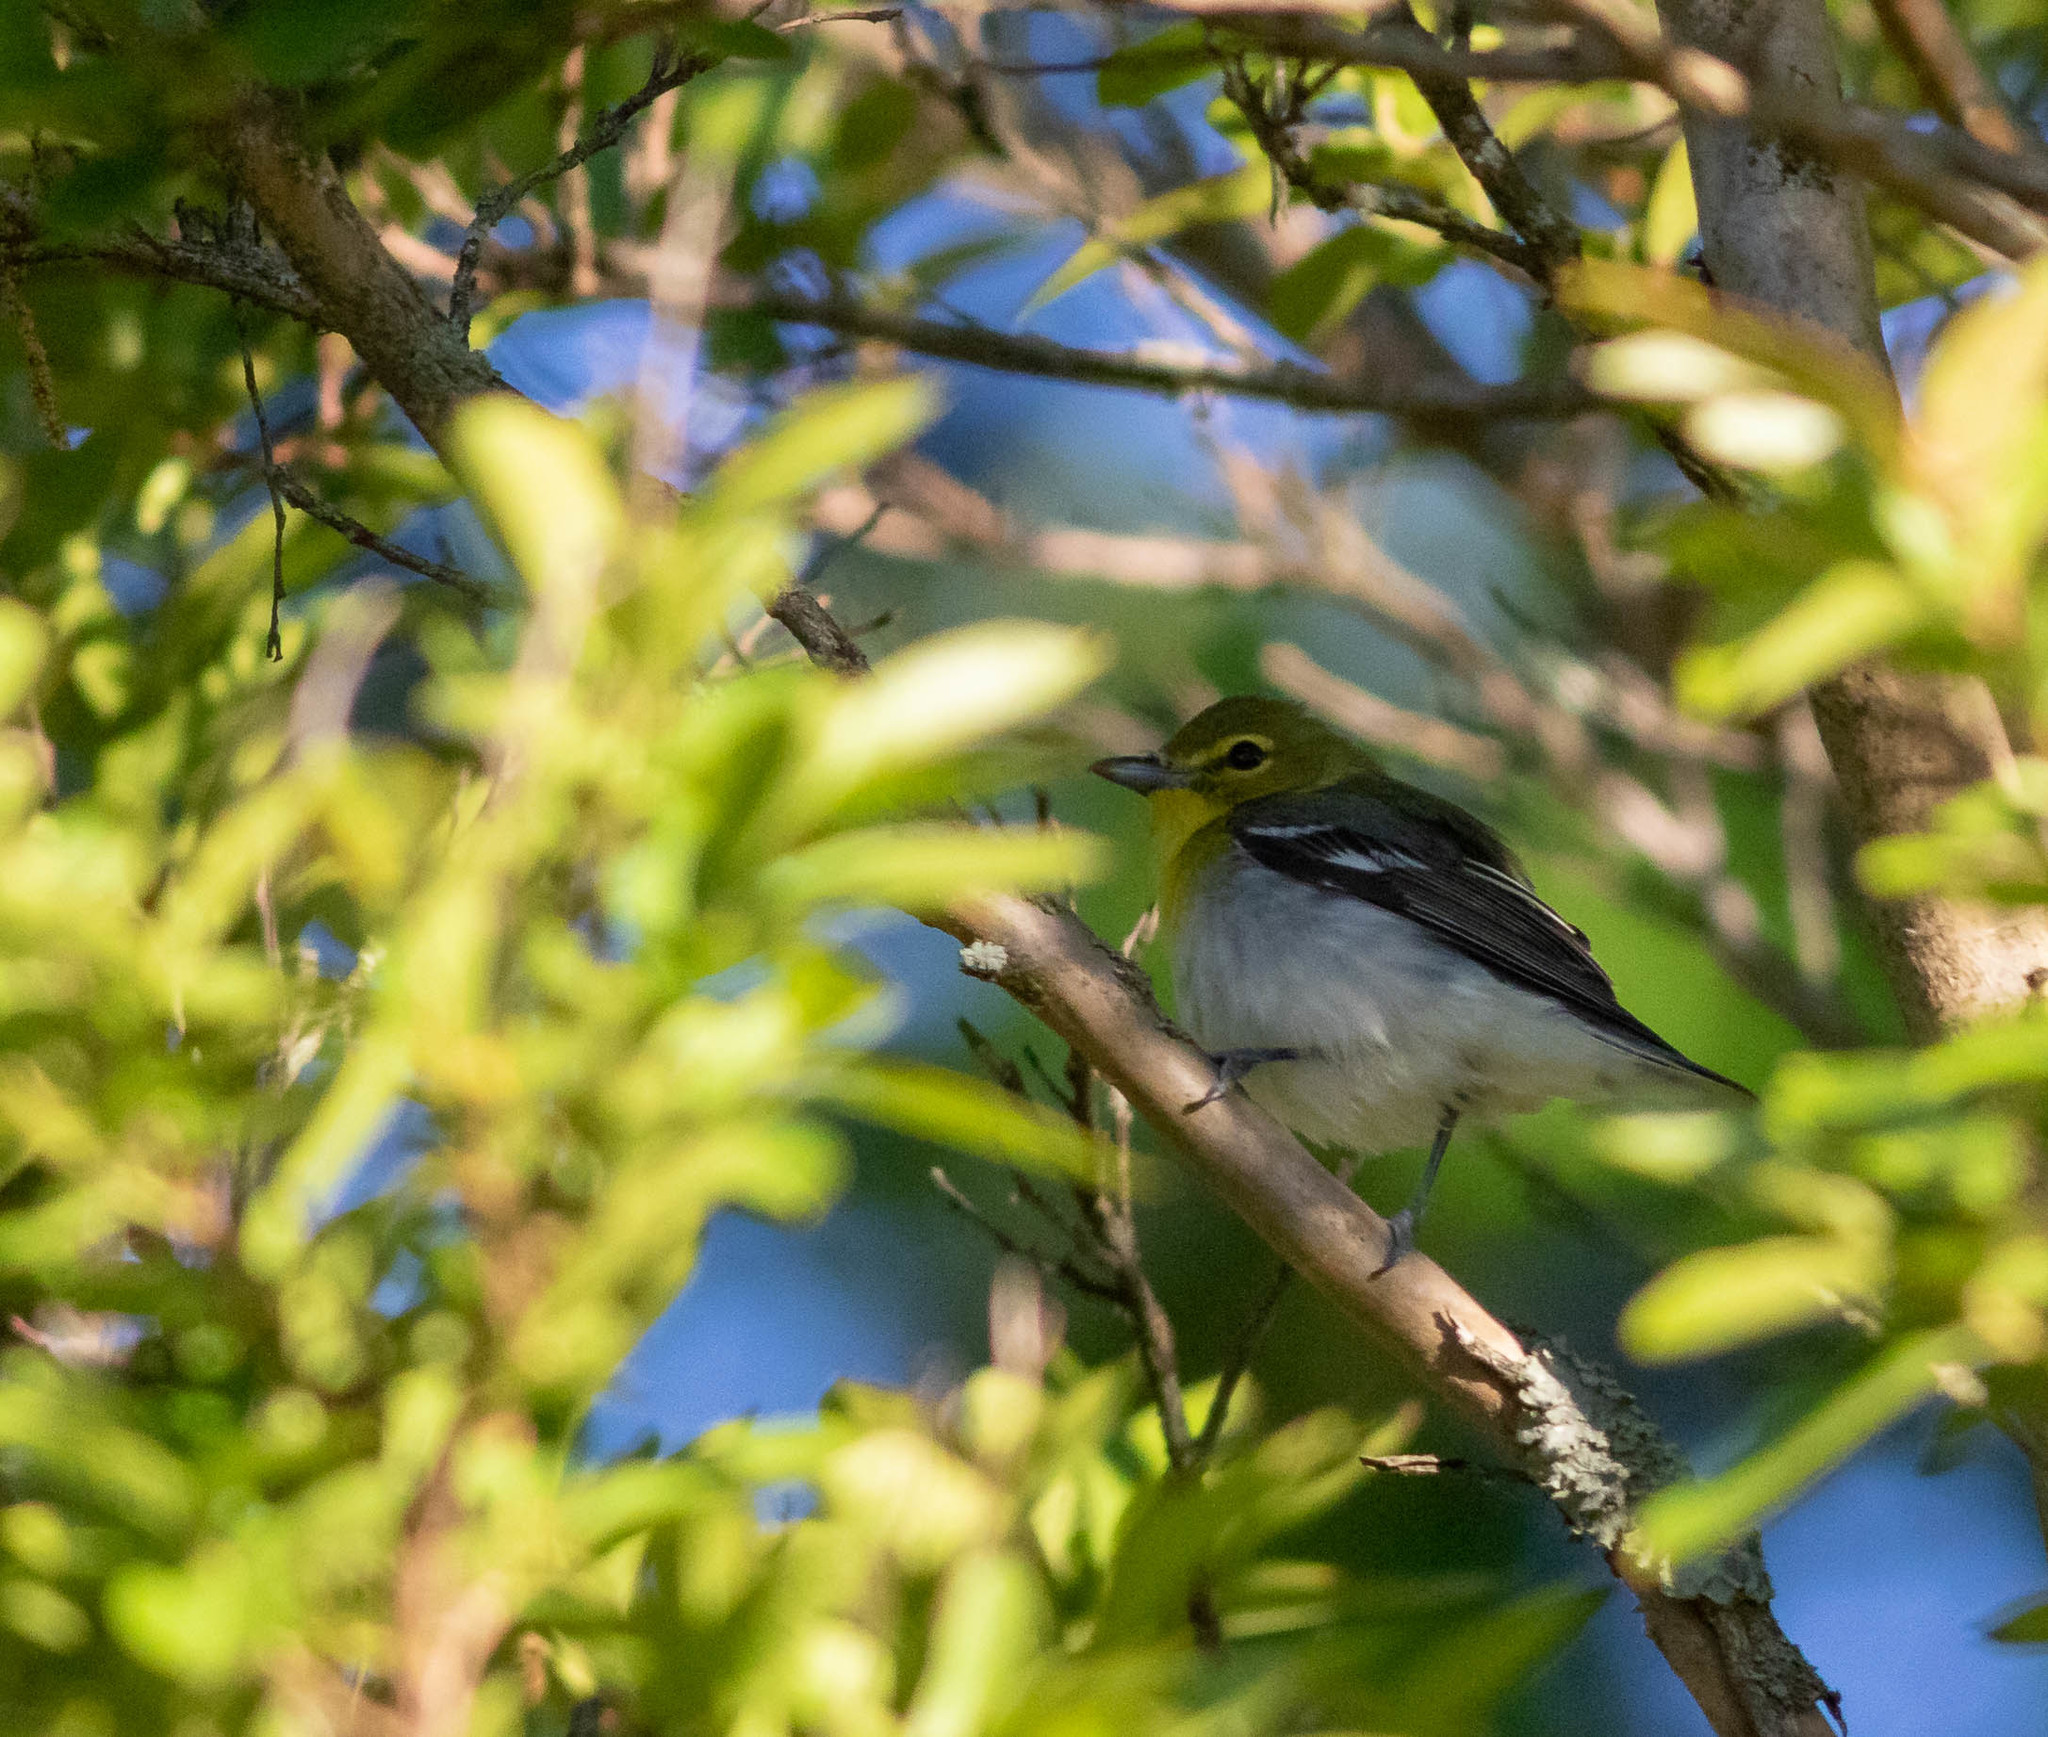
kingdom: Animalia
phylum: Chordata
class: Aves
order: Passeriformes
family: Vireonidae
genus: Vireo
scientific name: Vireo flavifrons
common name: Yellow-throated vireo
